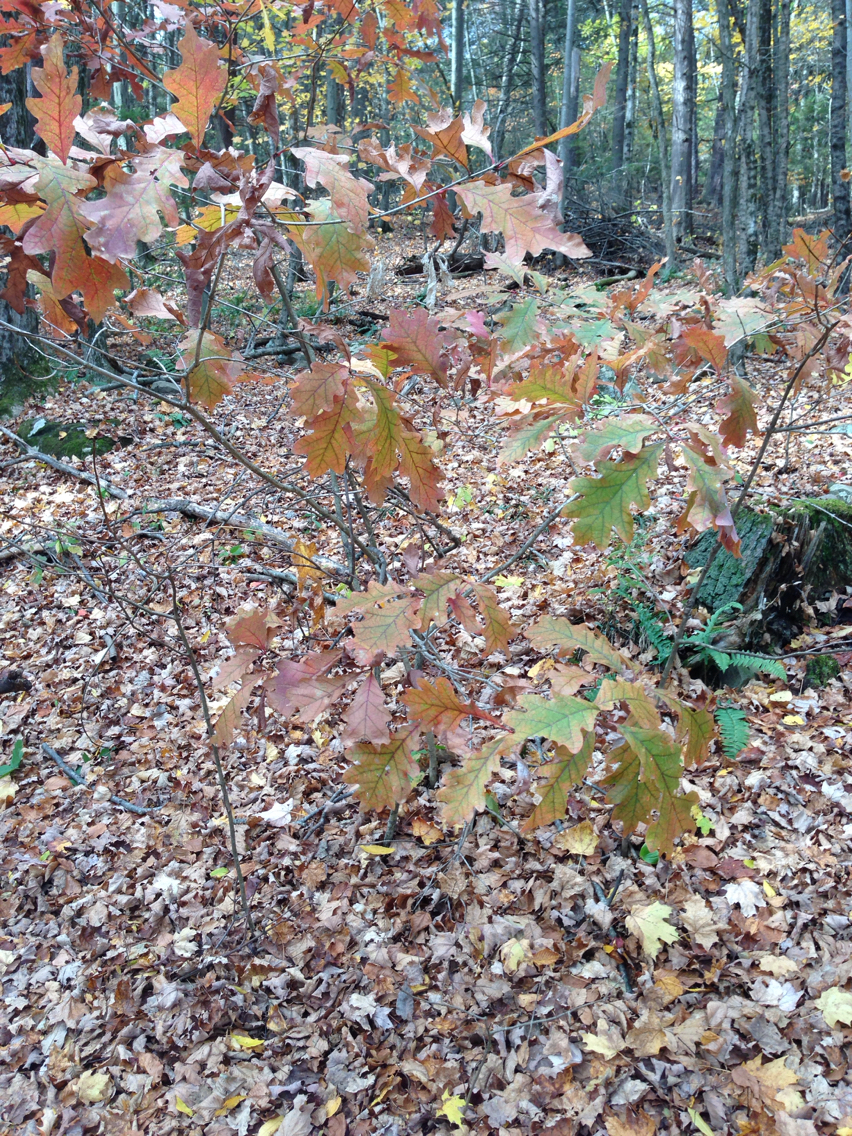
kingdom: Plantae
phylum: Tracheophyta
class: Magnoliopsida
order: Fagales
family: Fagaceae
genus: Quercus
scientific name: Quercus alba
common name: White oak
